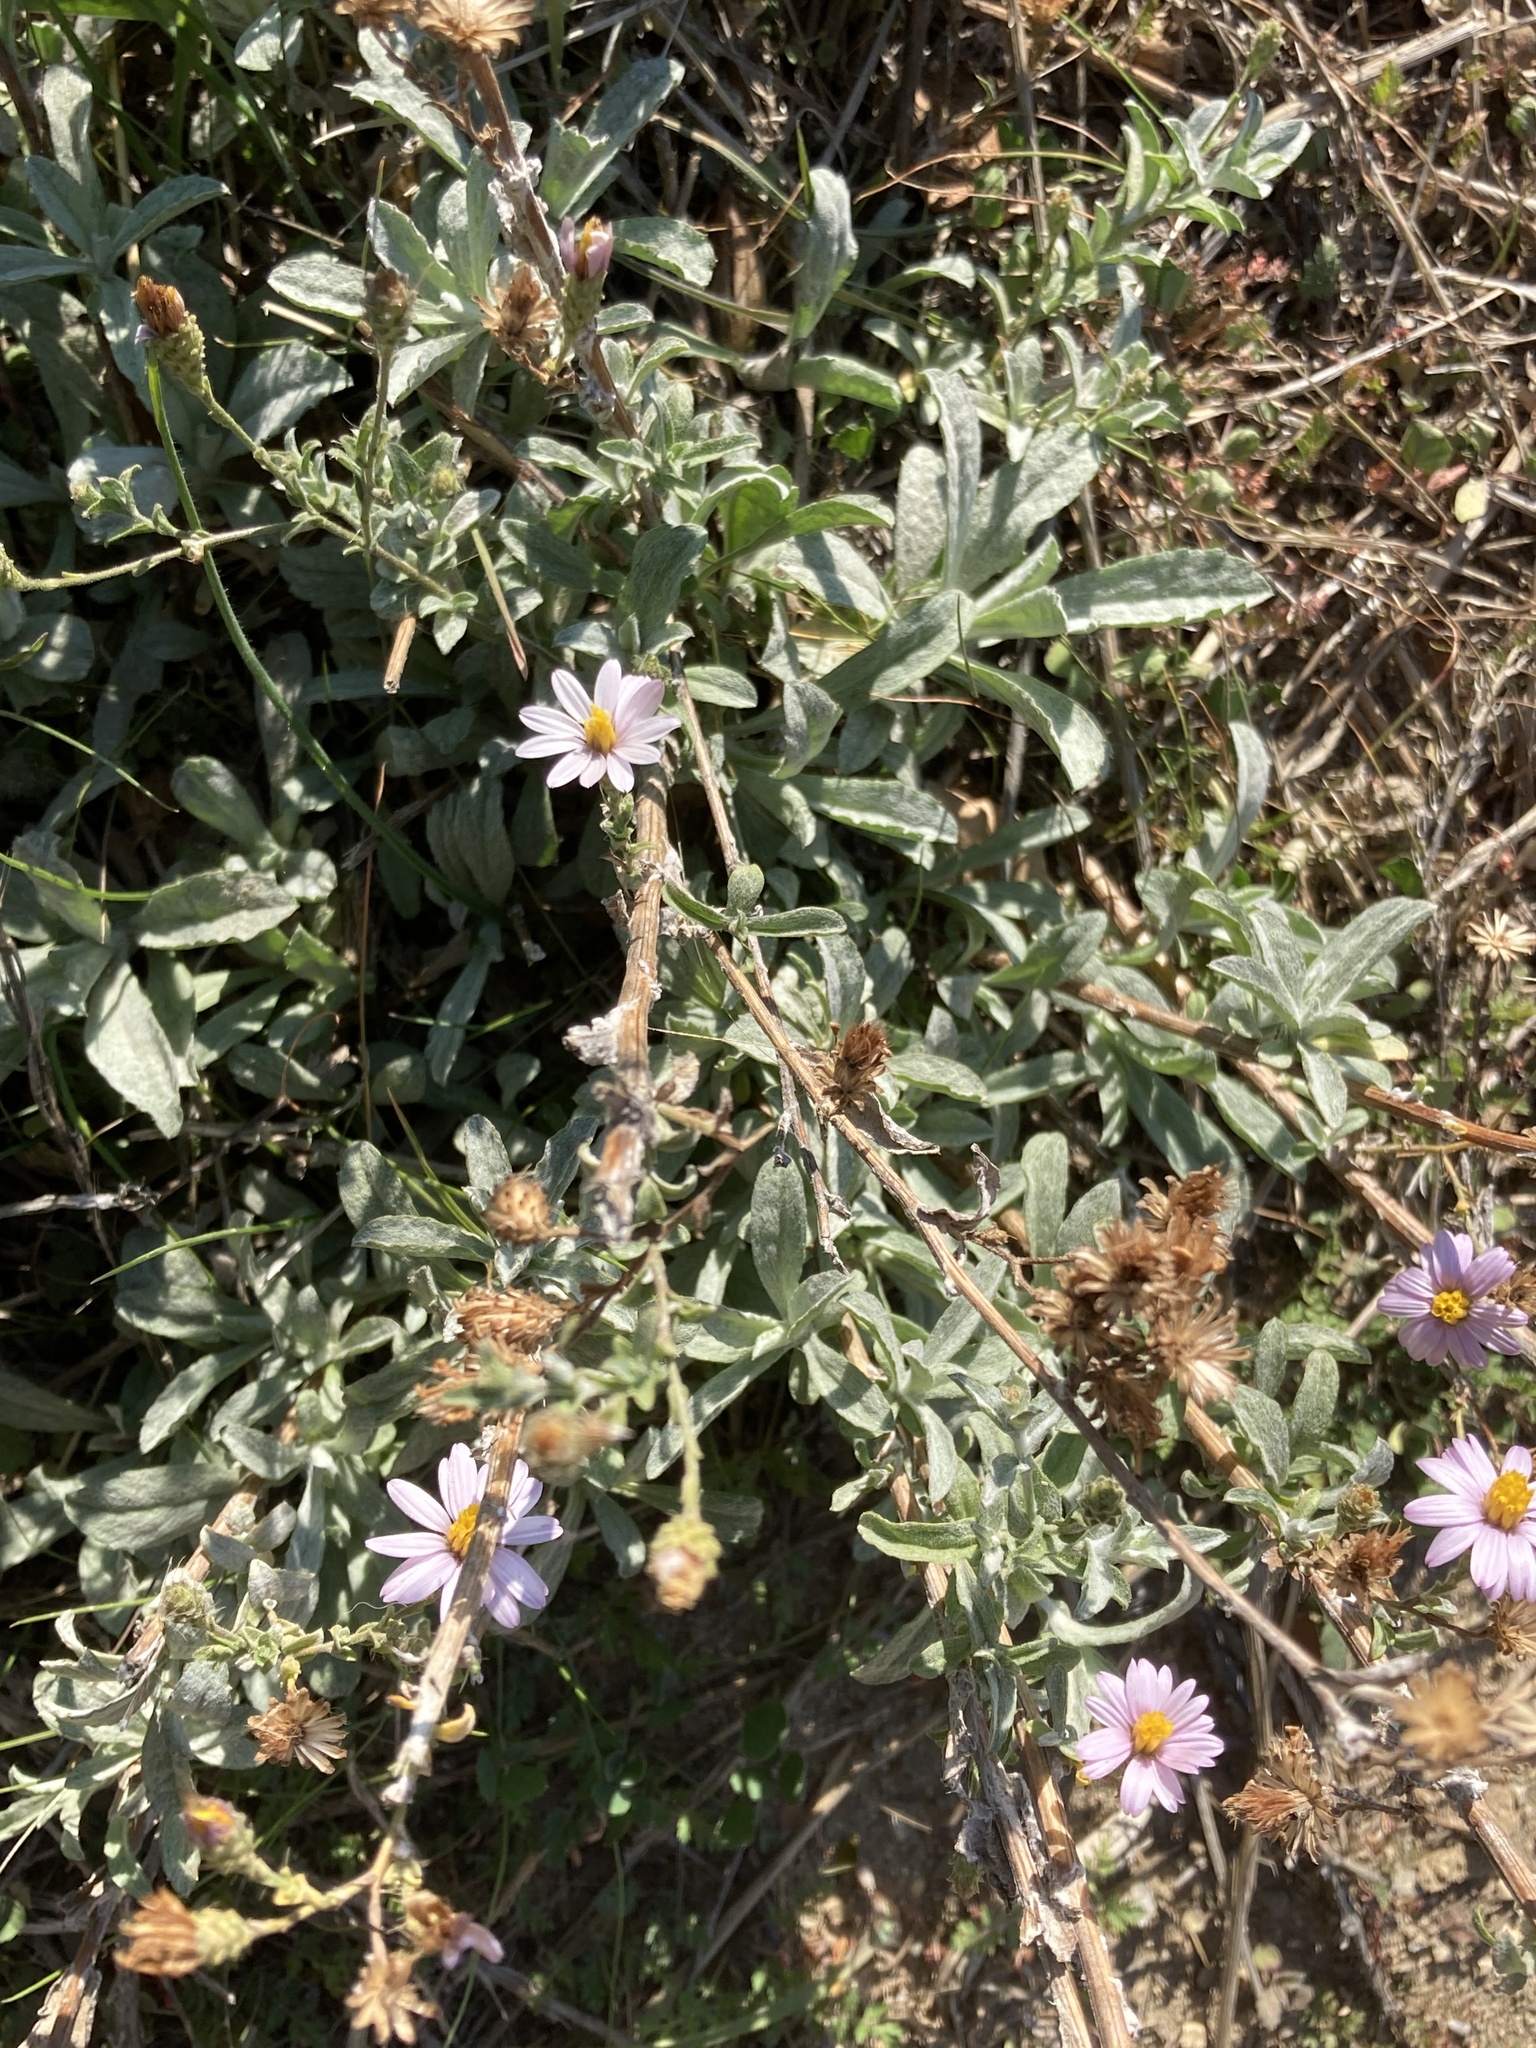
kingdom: Plantae
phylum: Tracheophyta
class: Magnoliopsida
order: Asterales
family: Asteraceae
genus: Corethrogyne
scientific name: Corethrogyne filaginifolia
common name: Sand-aster
